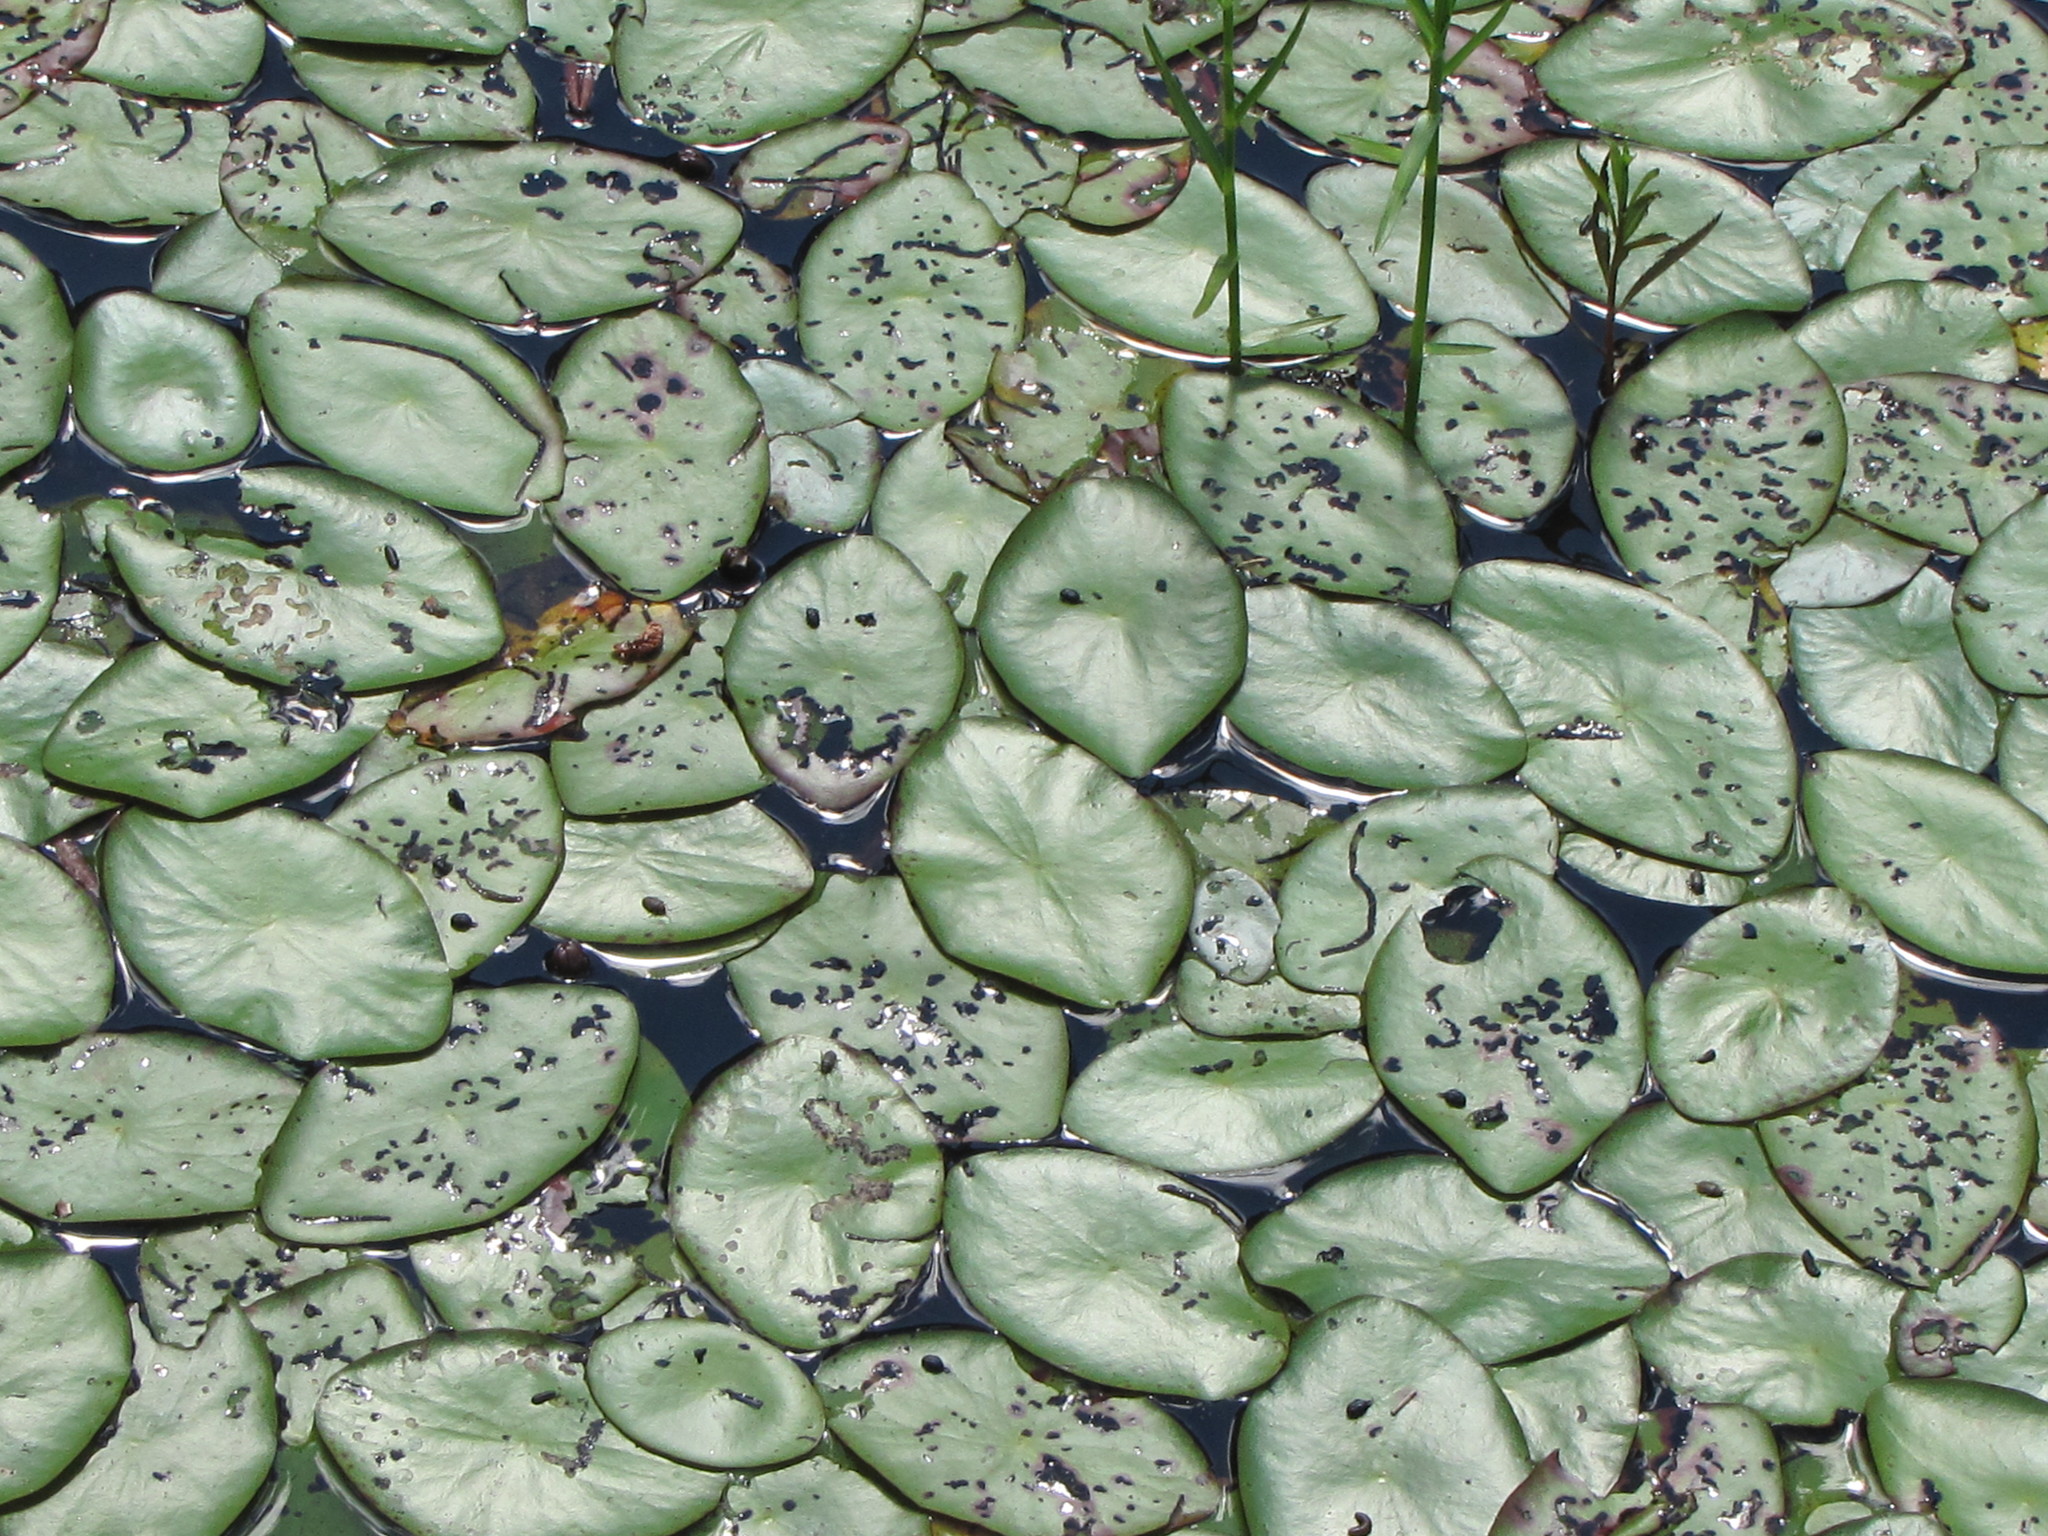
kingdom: Plantae
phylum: Tracheophyta
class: Magnoliopsida
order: Nymphaeales
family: Cabombaceae
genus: Brasenia
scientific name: Brasenia schreberi
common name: Water-shield
